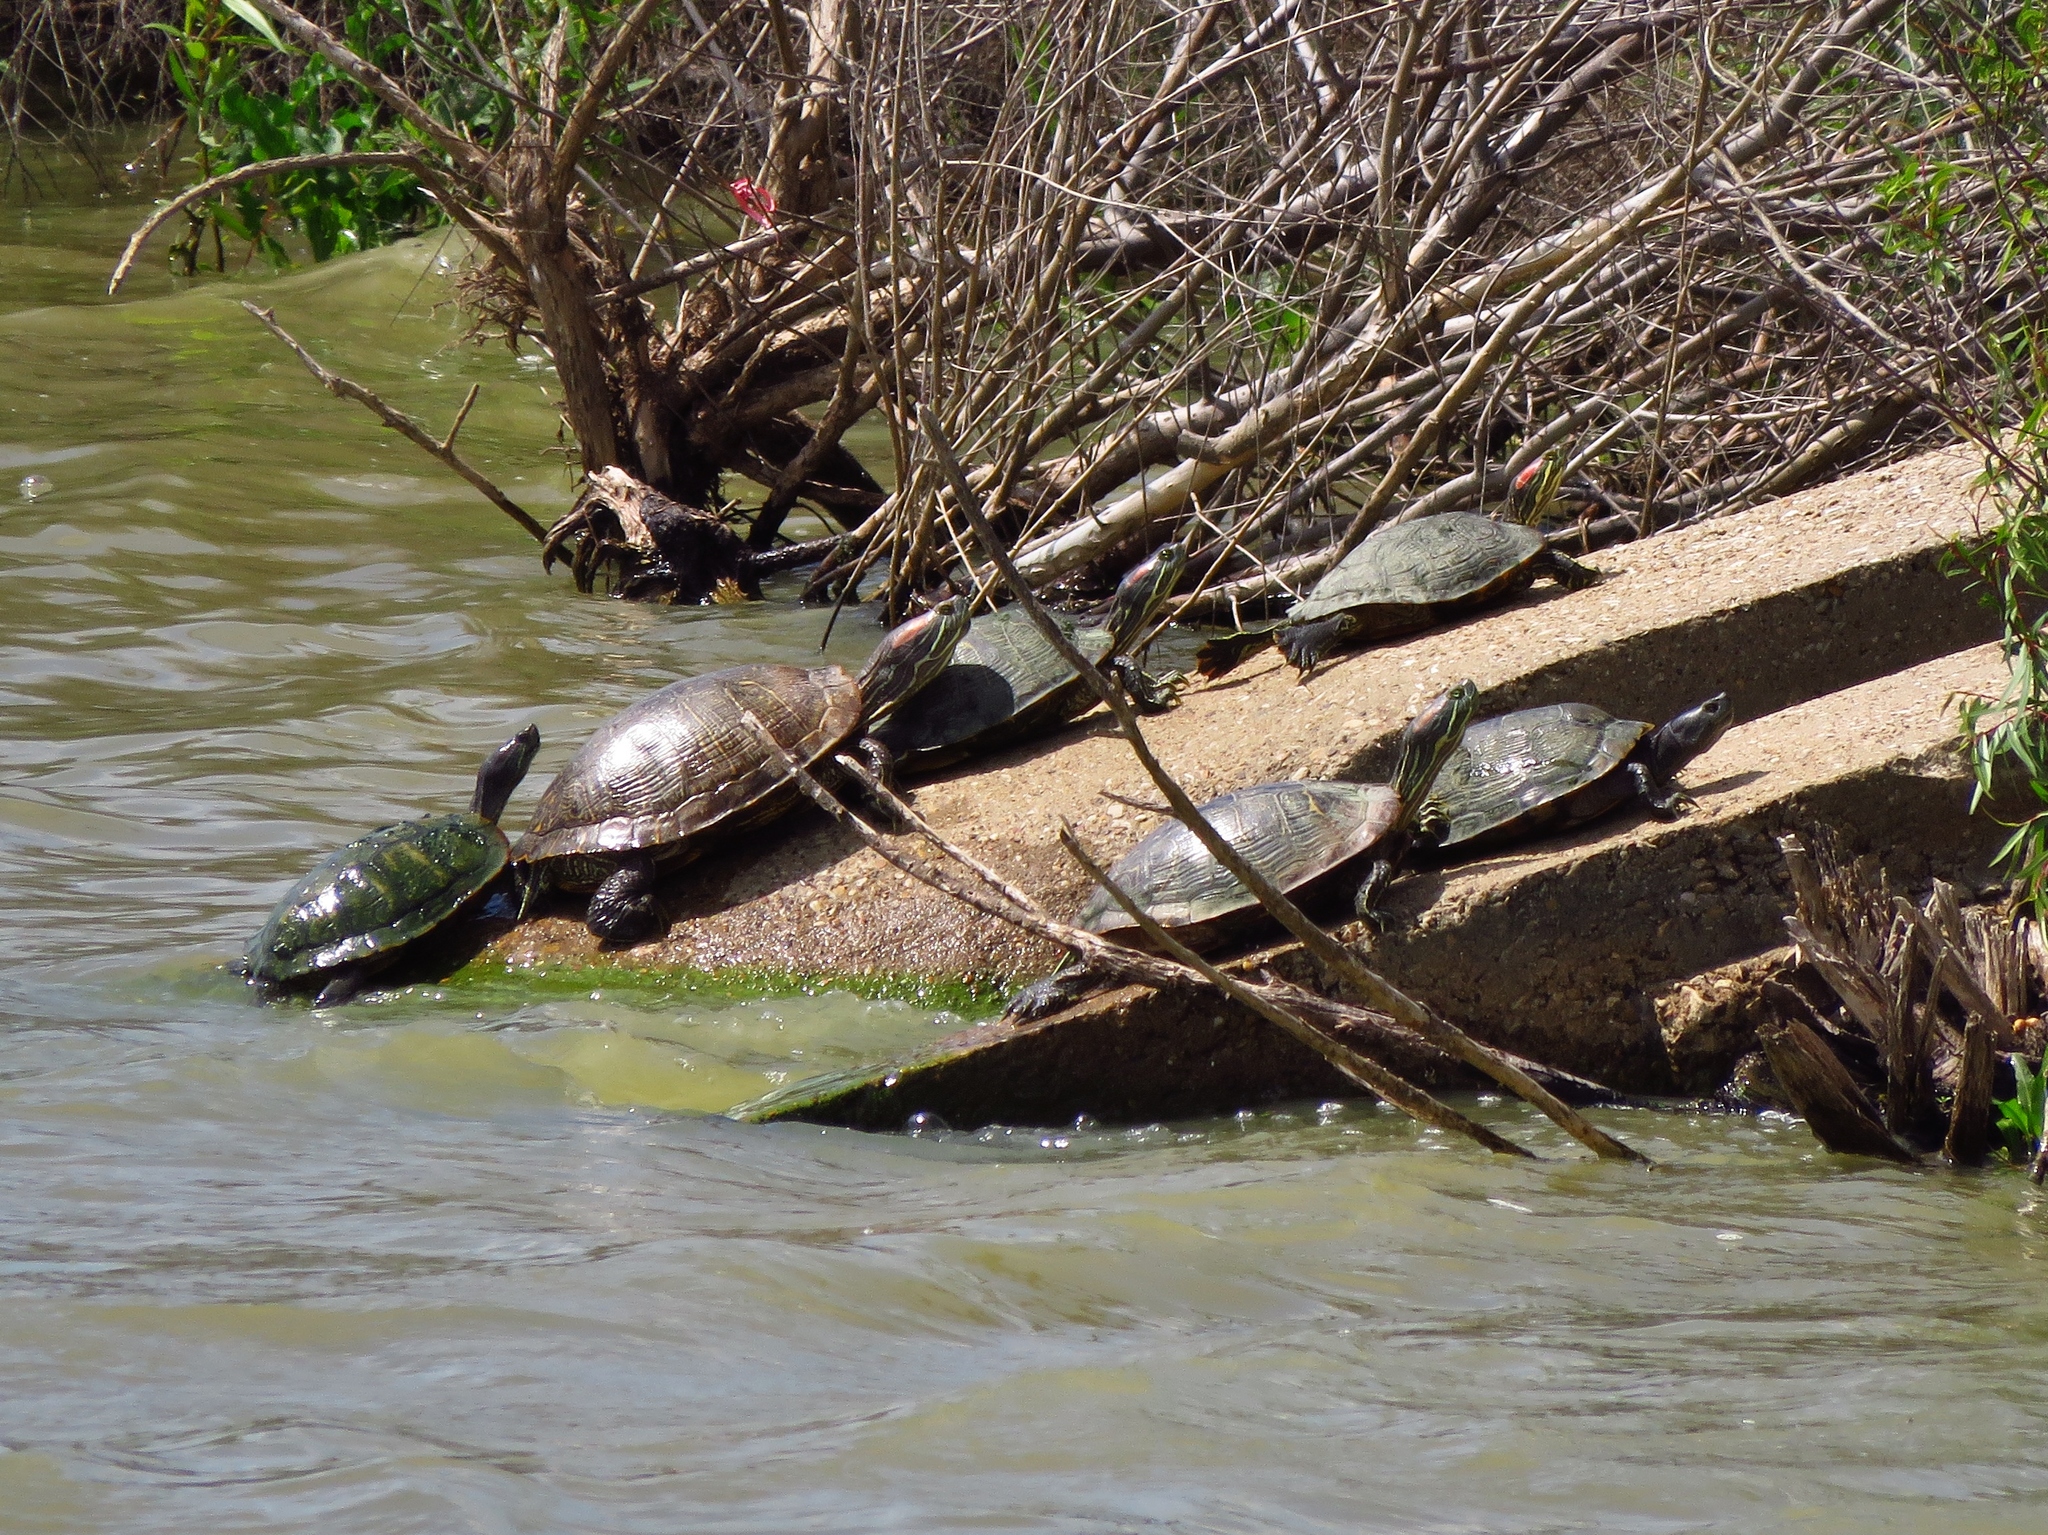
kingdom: Animalia
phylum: Chordata
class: Testudines
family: Emydidae
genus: Trachemys
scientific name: Trachemys scripta
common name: Slider
